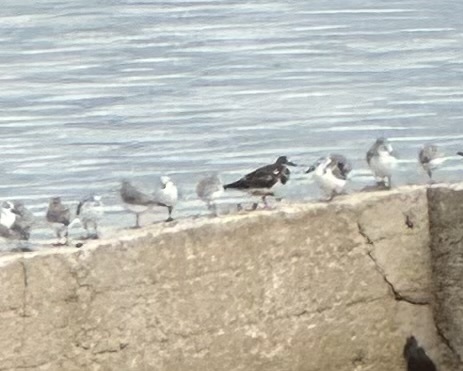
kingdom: Animalia
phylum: Chordata
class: Aves
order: Charadriiformes
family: Scolopacidae
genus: Arenaria
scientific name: Arenaria interpres
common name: Ruddy turnstone
